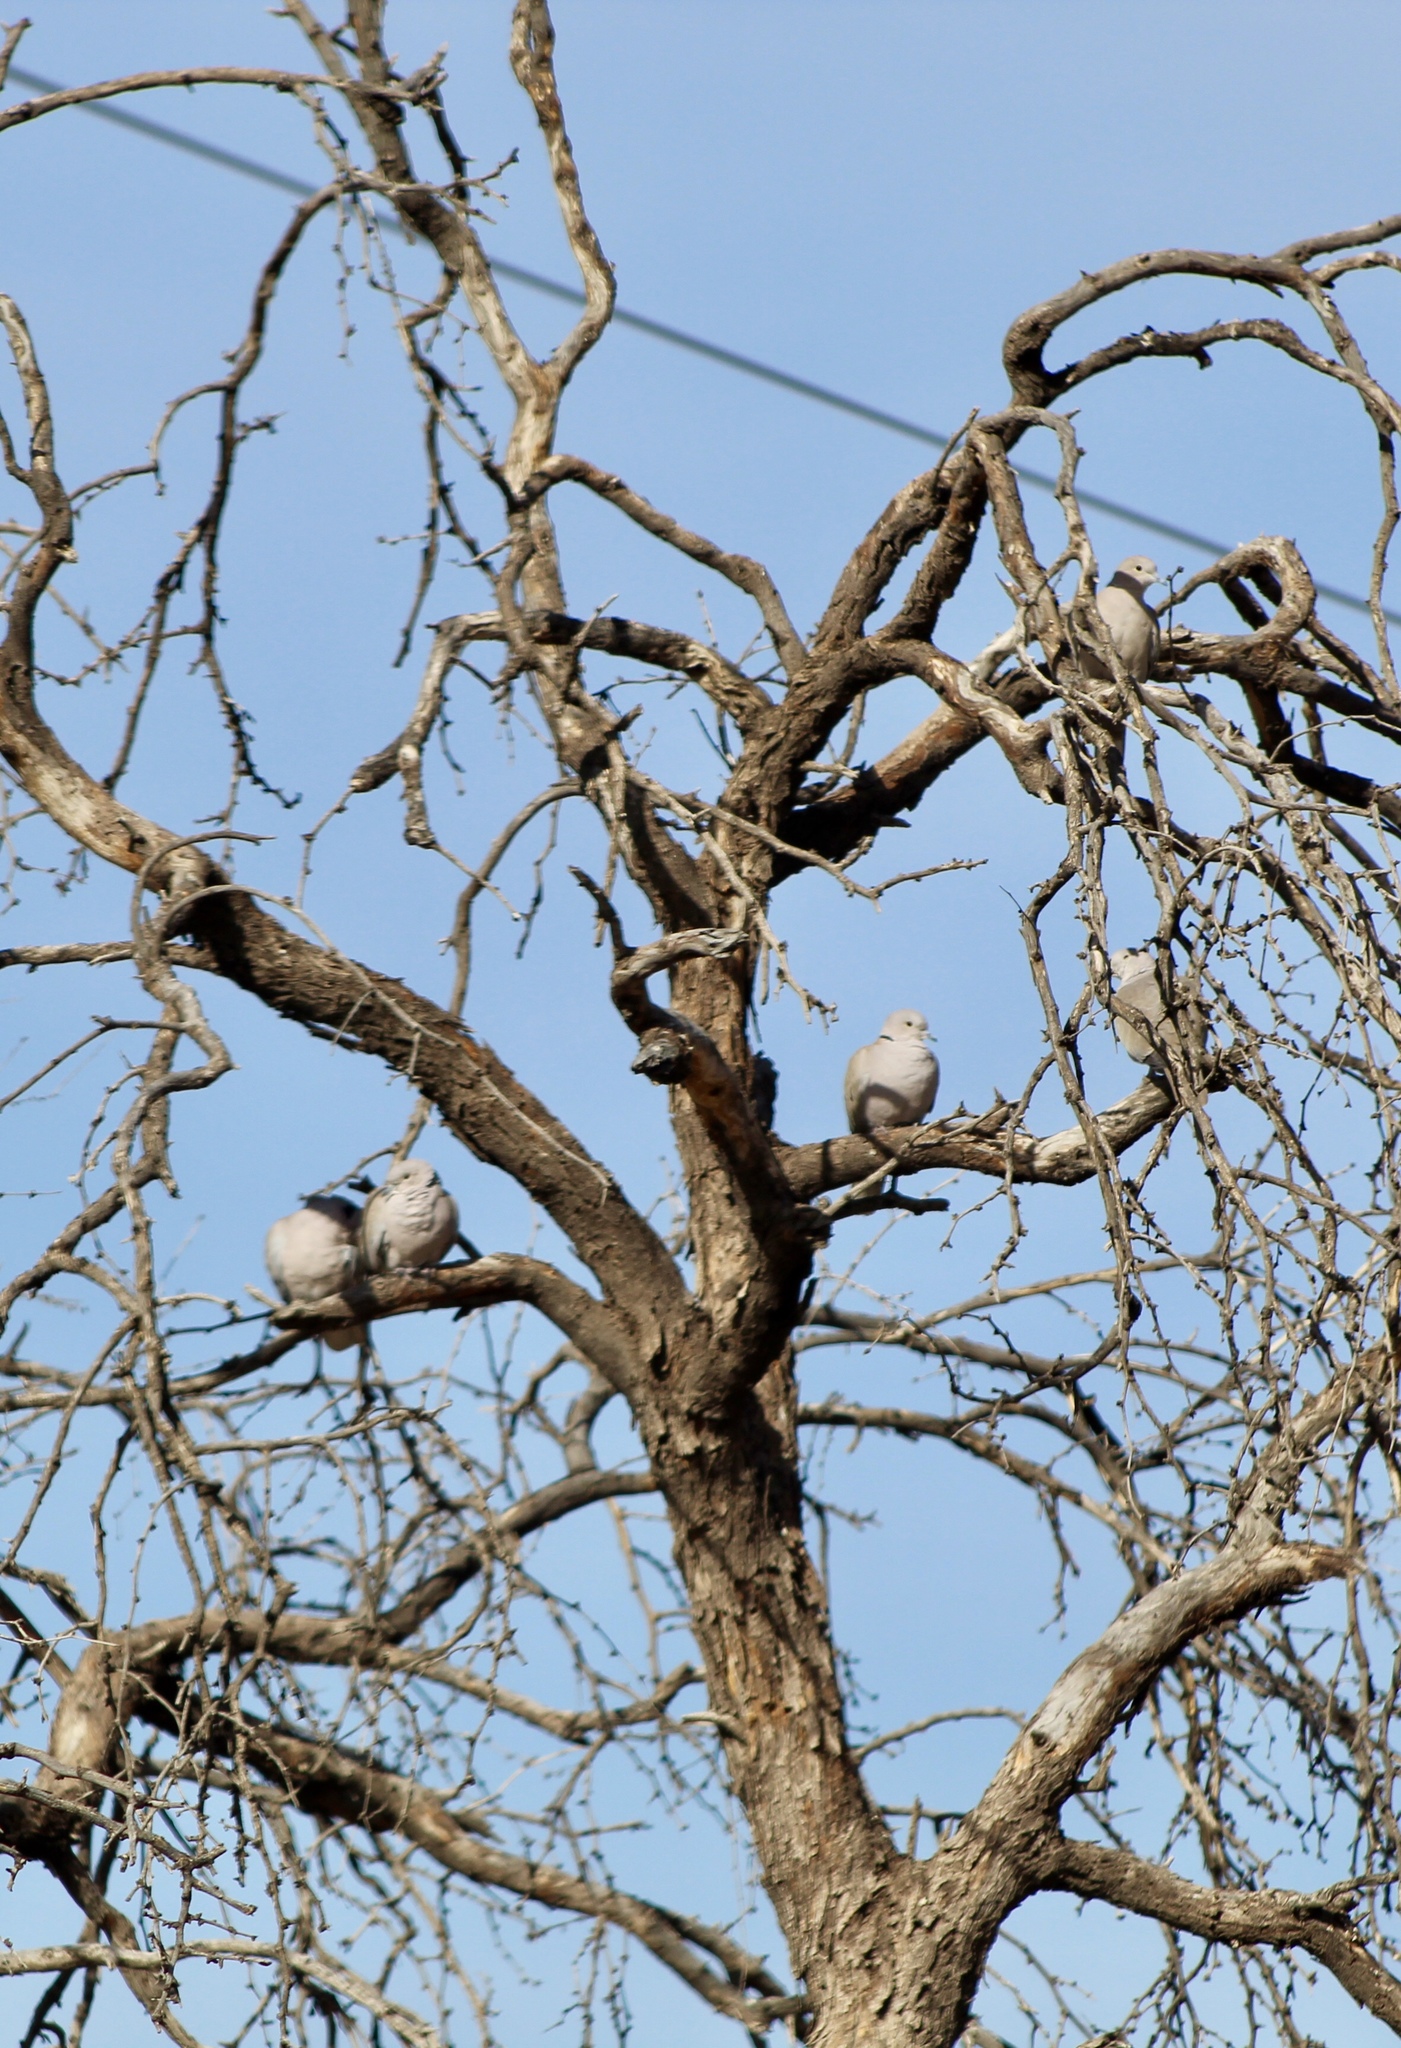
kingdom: Animalia
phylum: Chordata
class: Aves
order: Columbiformes
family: Columbidae
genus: Streptopelia
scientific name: Streptopelia decaocto
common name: Eurasian collared dove
